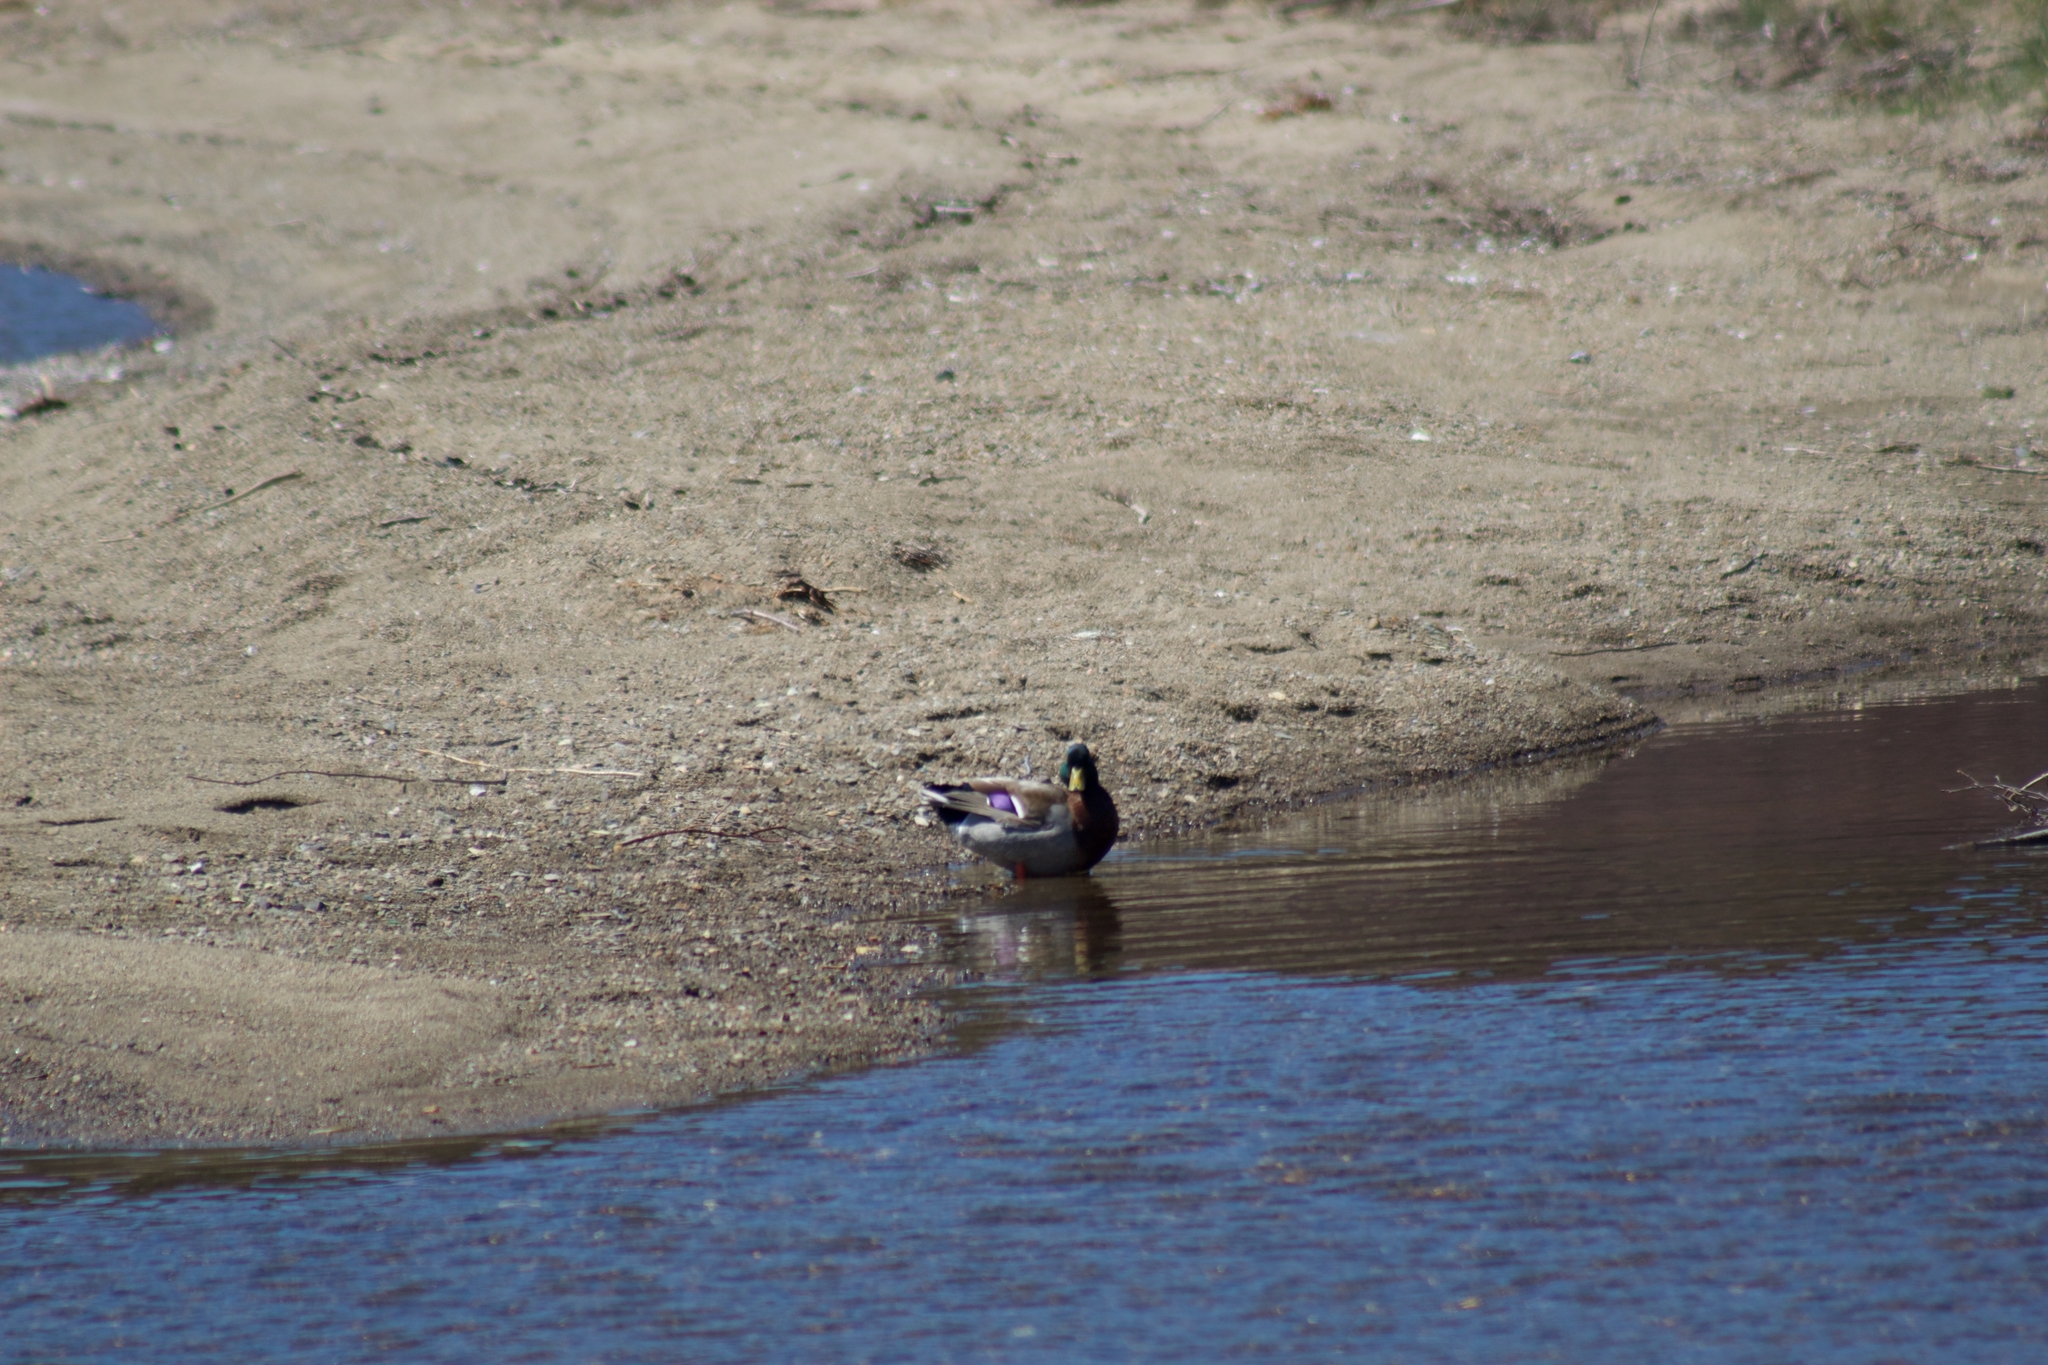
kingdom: Animalia
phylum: Chordata
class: Aves
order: Anseriformes
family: Anatidae
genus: Anas
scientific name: Anas platyrhynchos
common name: Mallard
